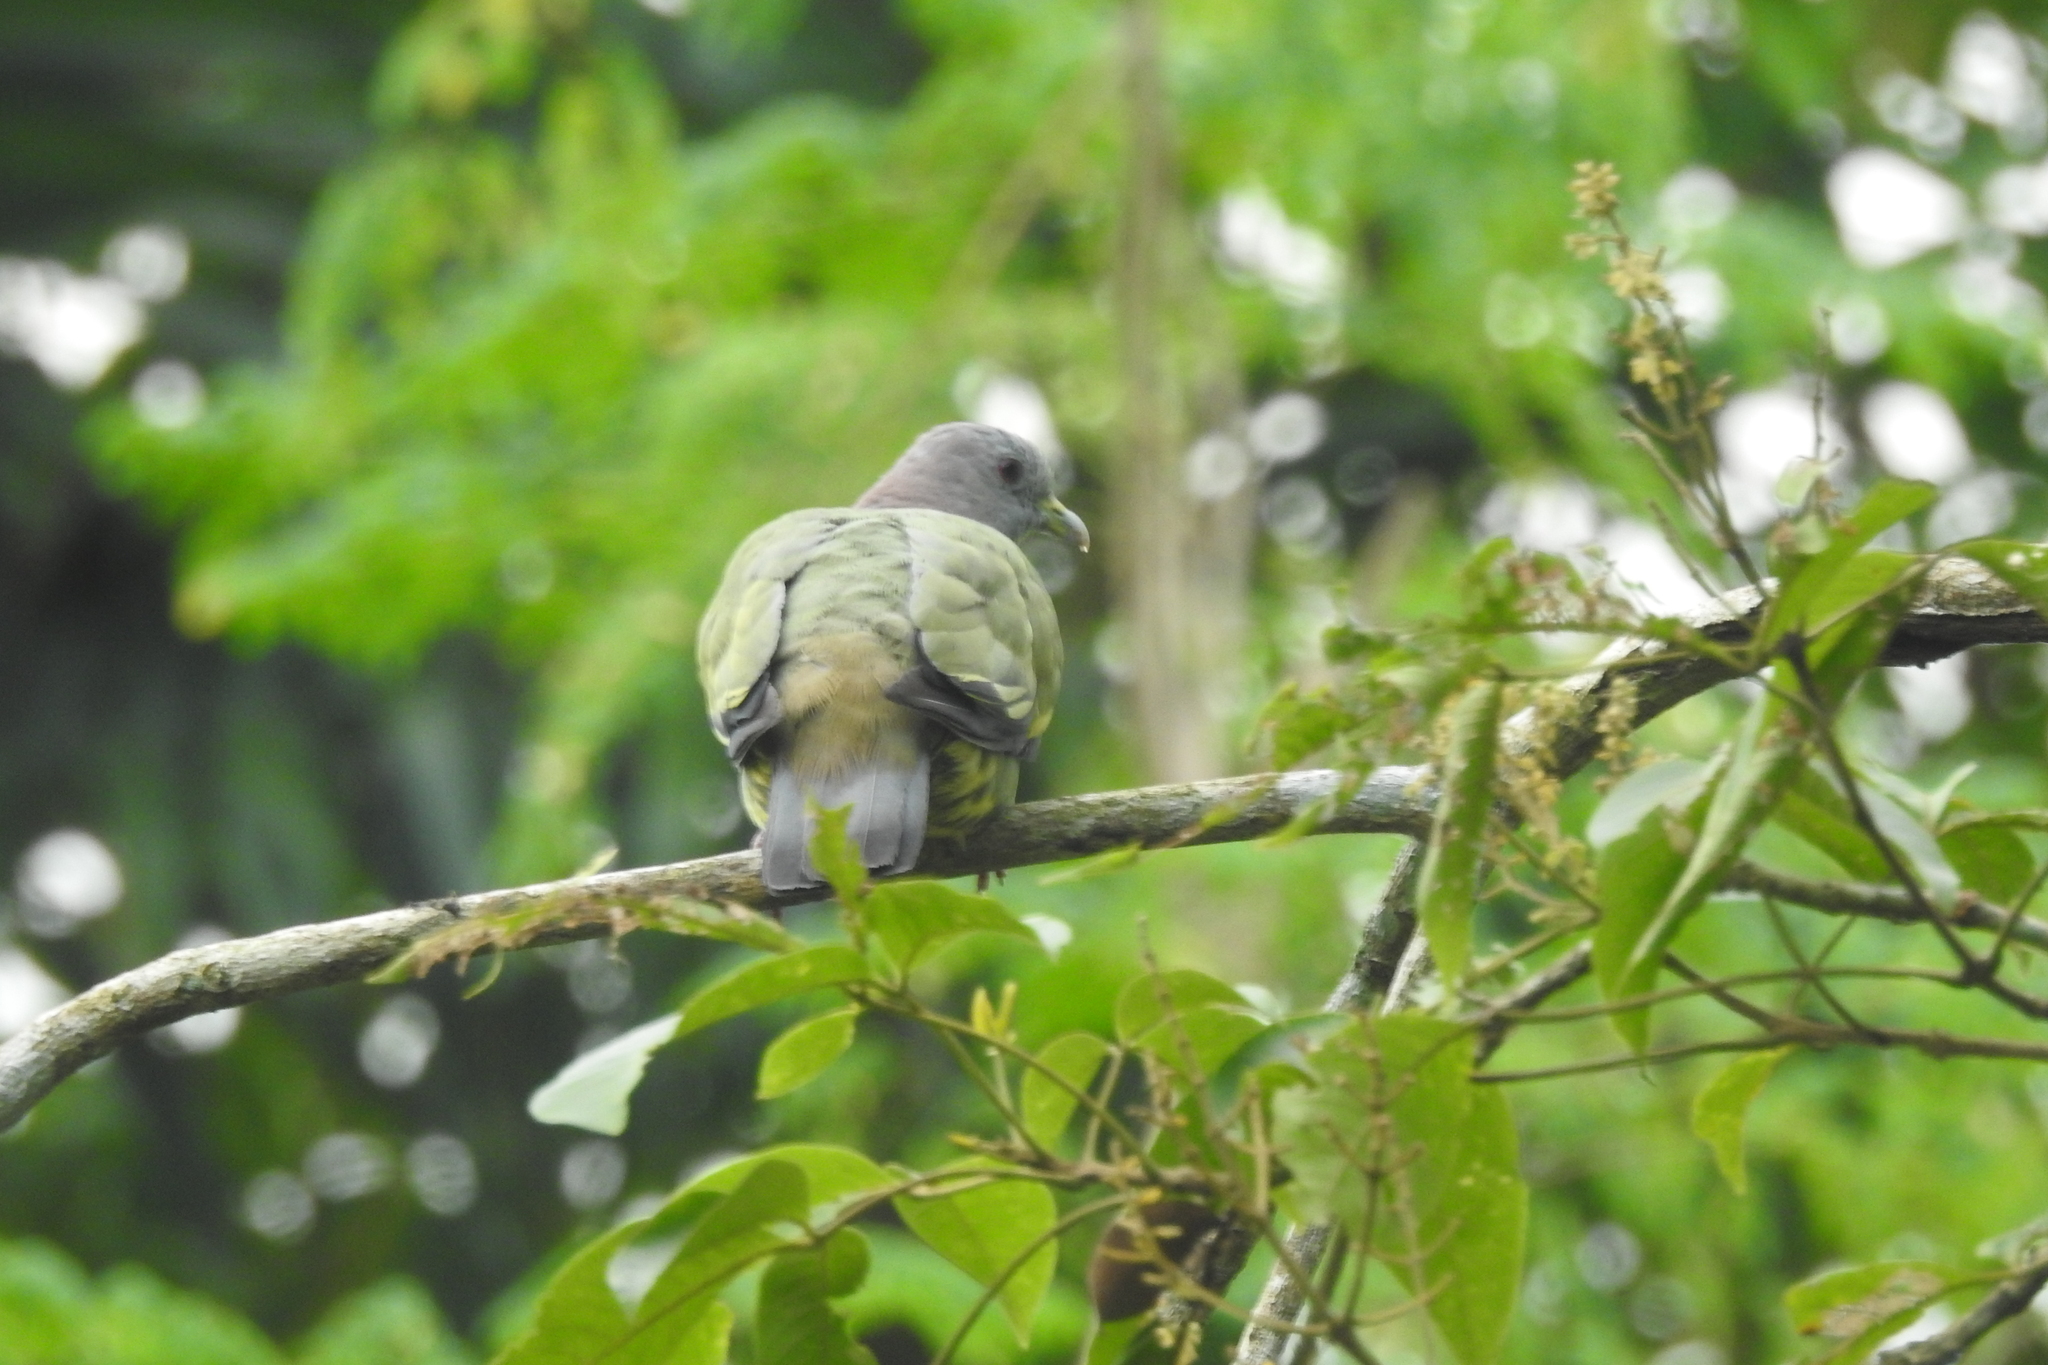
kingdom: Animalia
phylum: Chordata
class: Aves
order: Columbiformes
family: Columbidae
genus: Treron
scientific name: Treron vernans
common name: Pink-necked green pigeon
